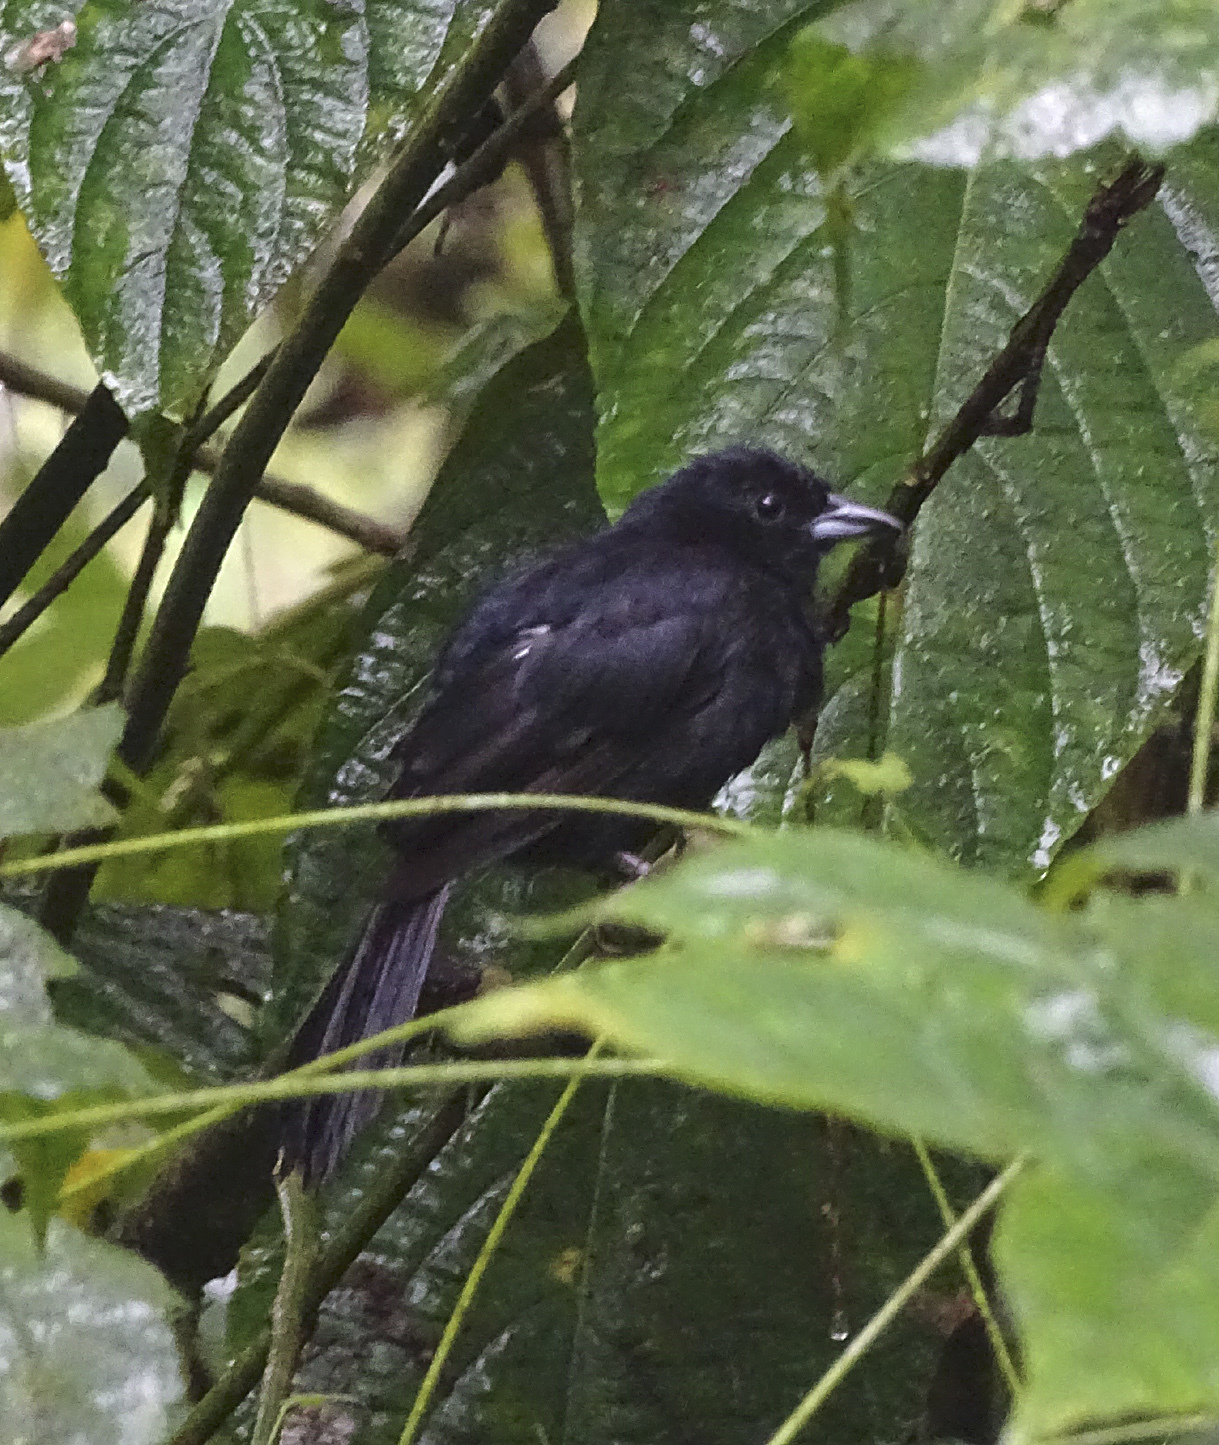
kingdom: Animalia
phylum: Chordata
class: Aves
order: Passeriformes
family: Thraupidae
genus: Tachyphonus
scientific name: Tachyphonus rufus
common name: White-lined tanager
